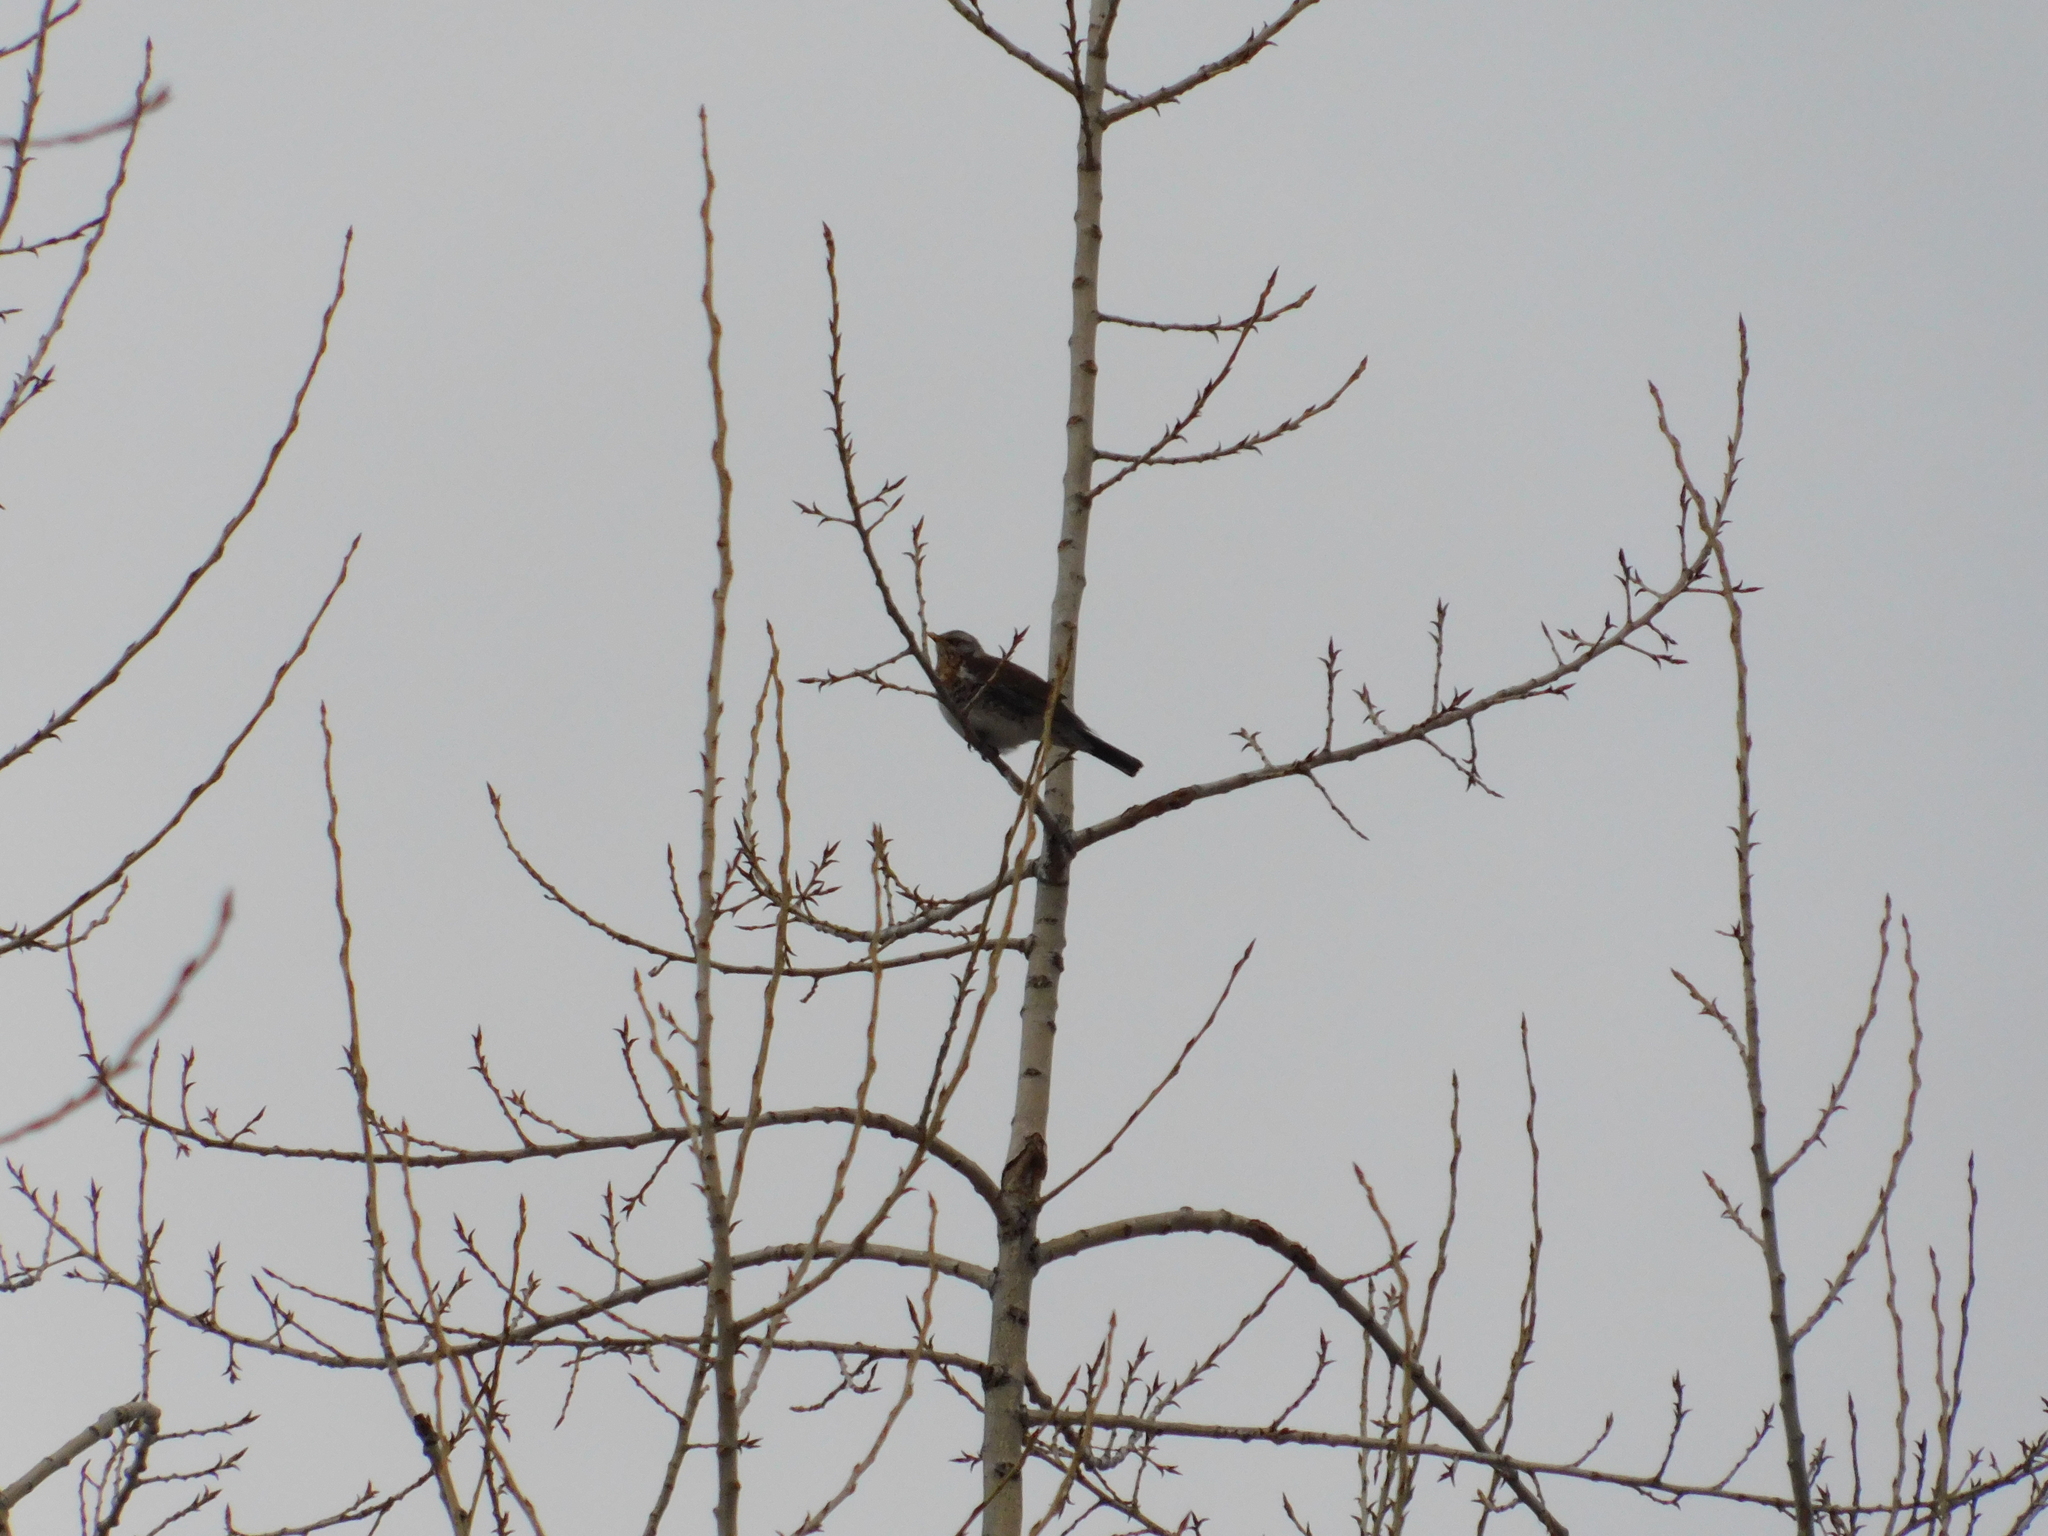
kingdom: Animalia
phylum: Chordata
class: Aves
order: Passeriformes
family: Turdidae
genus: Turdus
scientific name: Turdus pilaris
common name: Fieldfare
